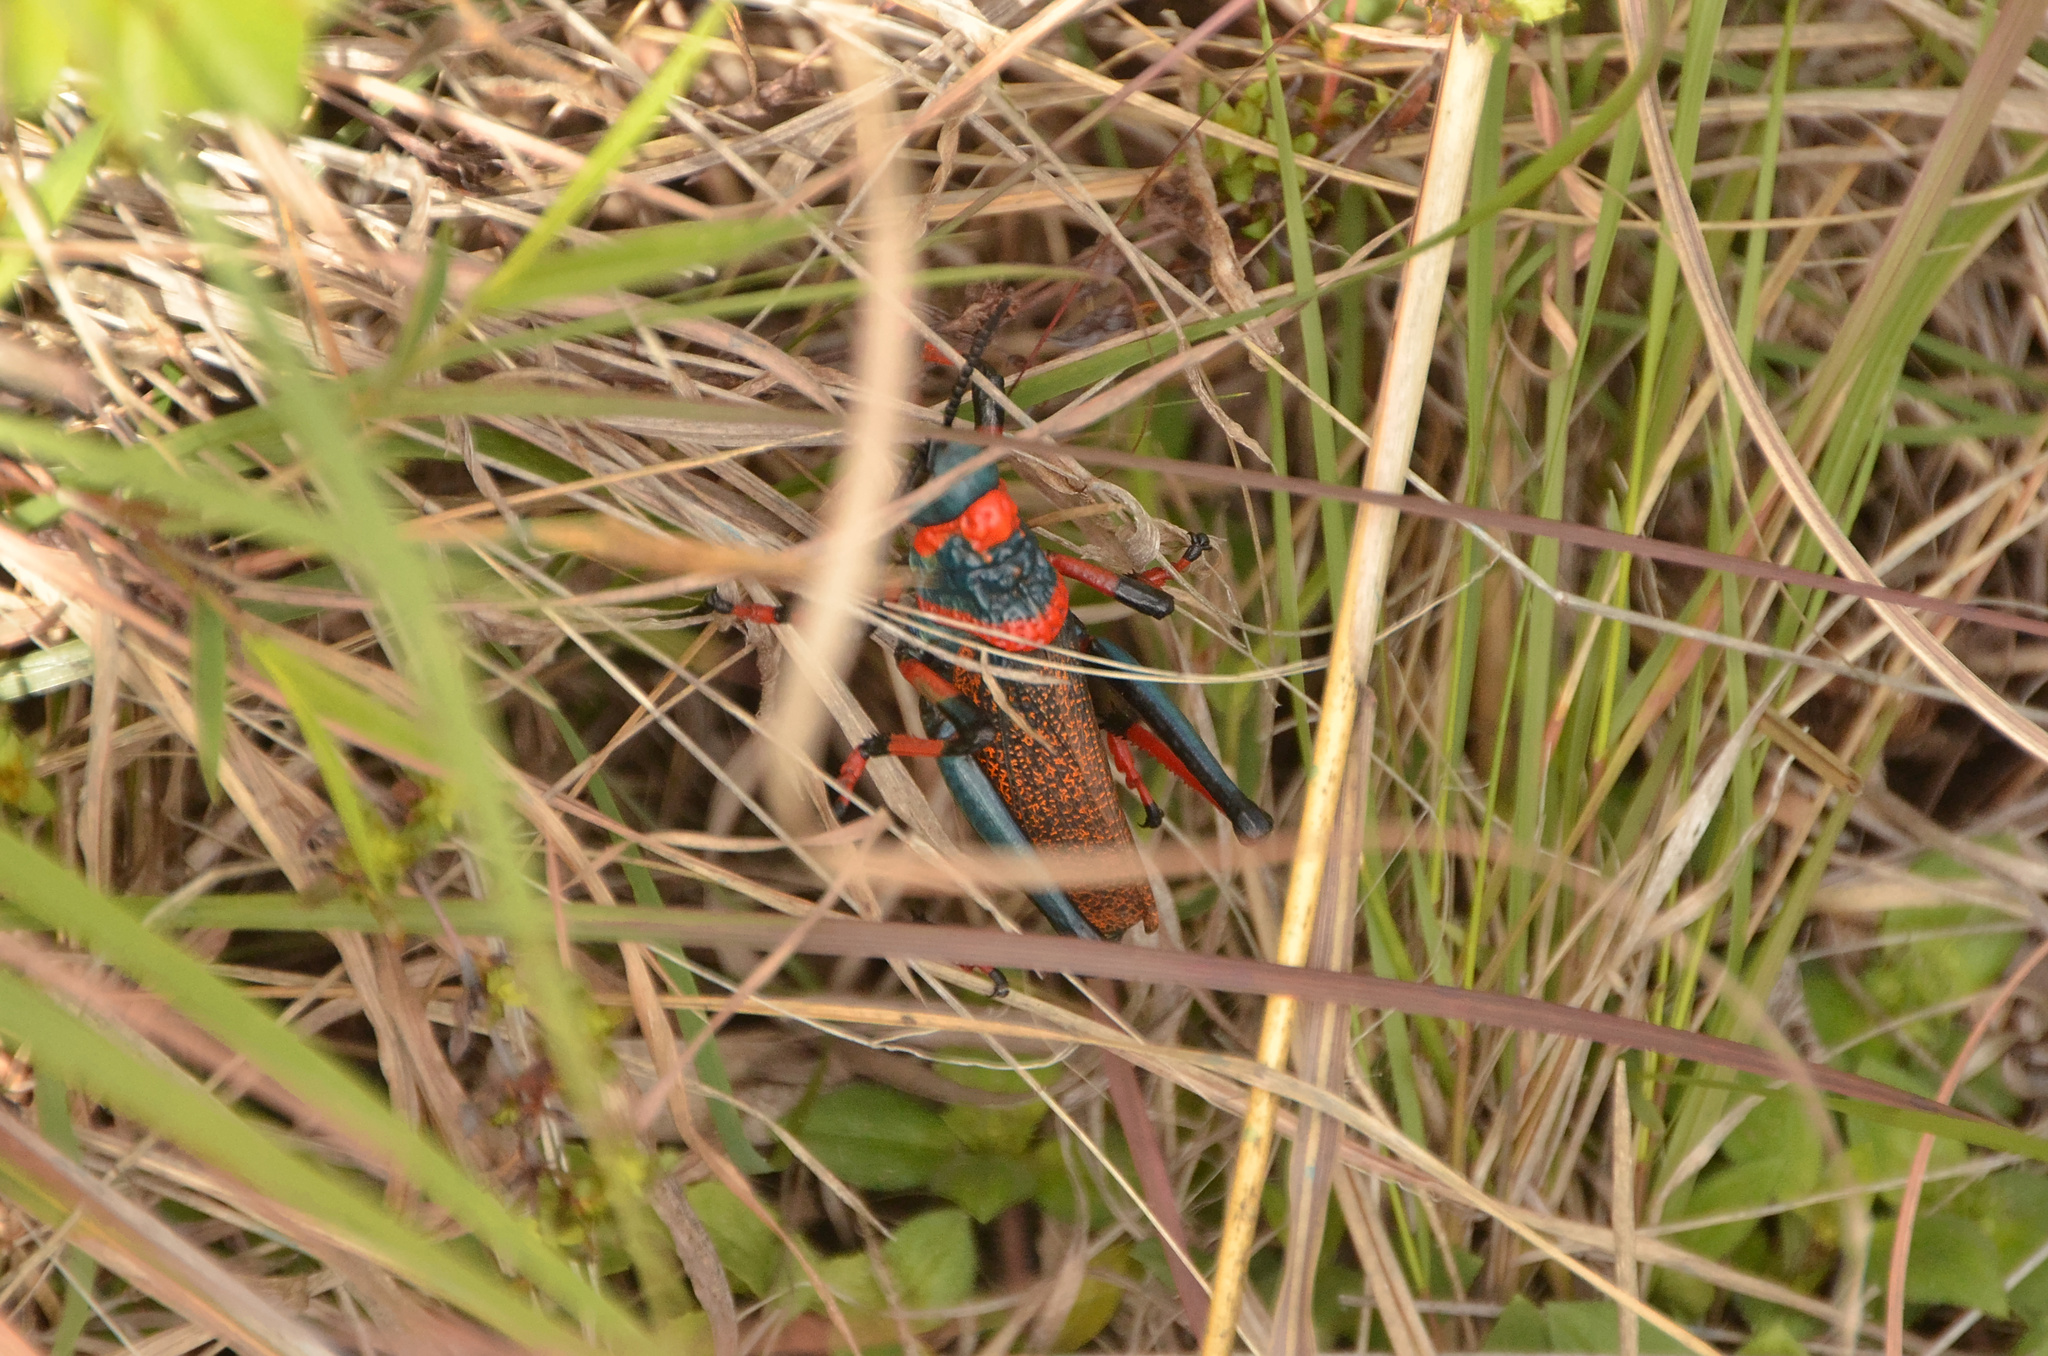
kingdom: Animalia
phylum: Arthropoda
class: Insecta
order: Orthoptera
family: Pyrgomorphidae
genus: Dictyophorus
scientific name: Dictyophorus spumans
